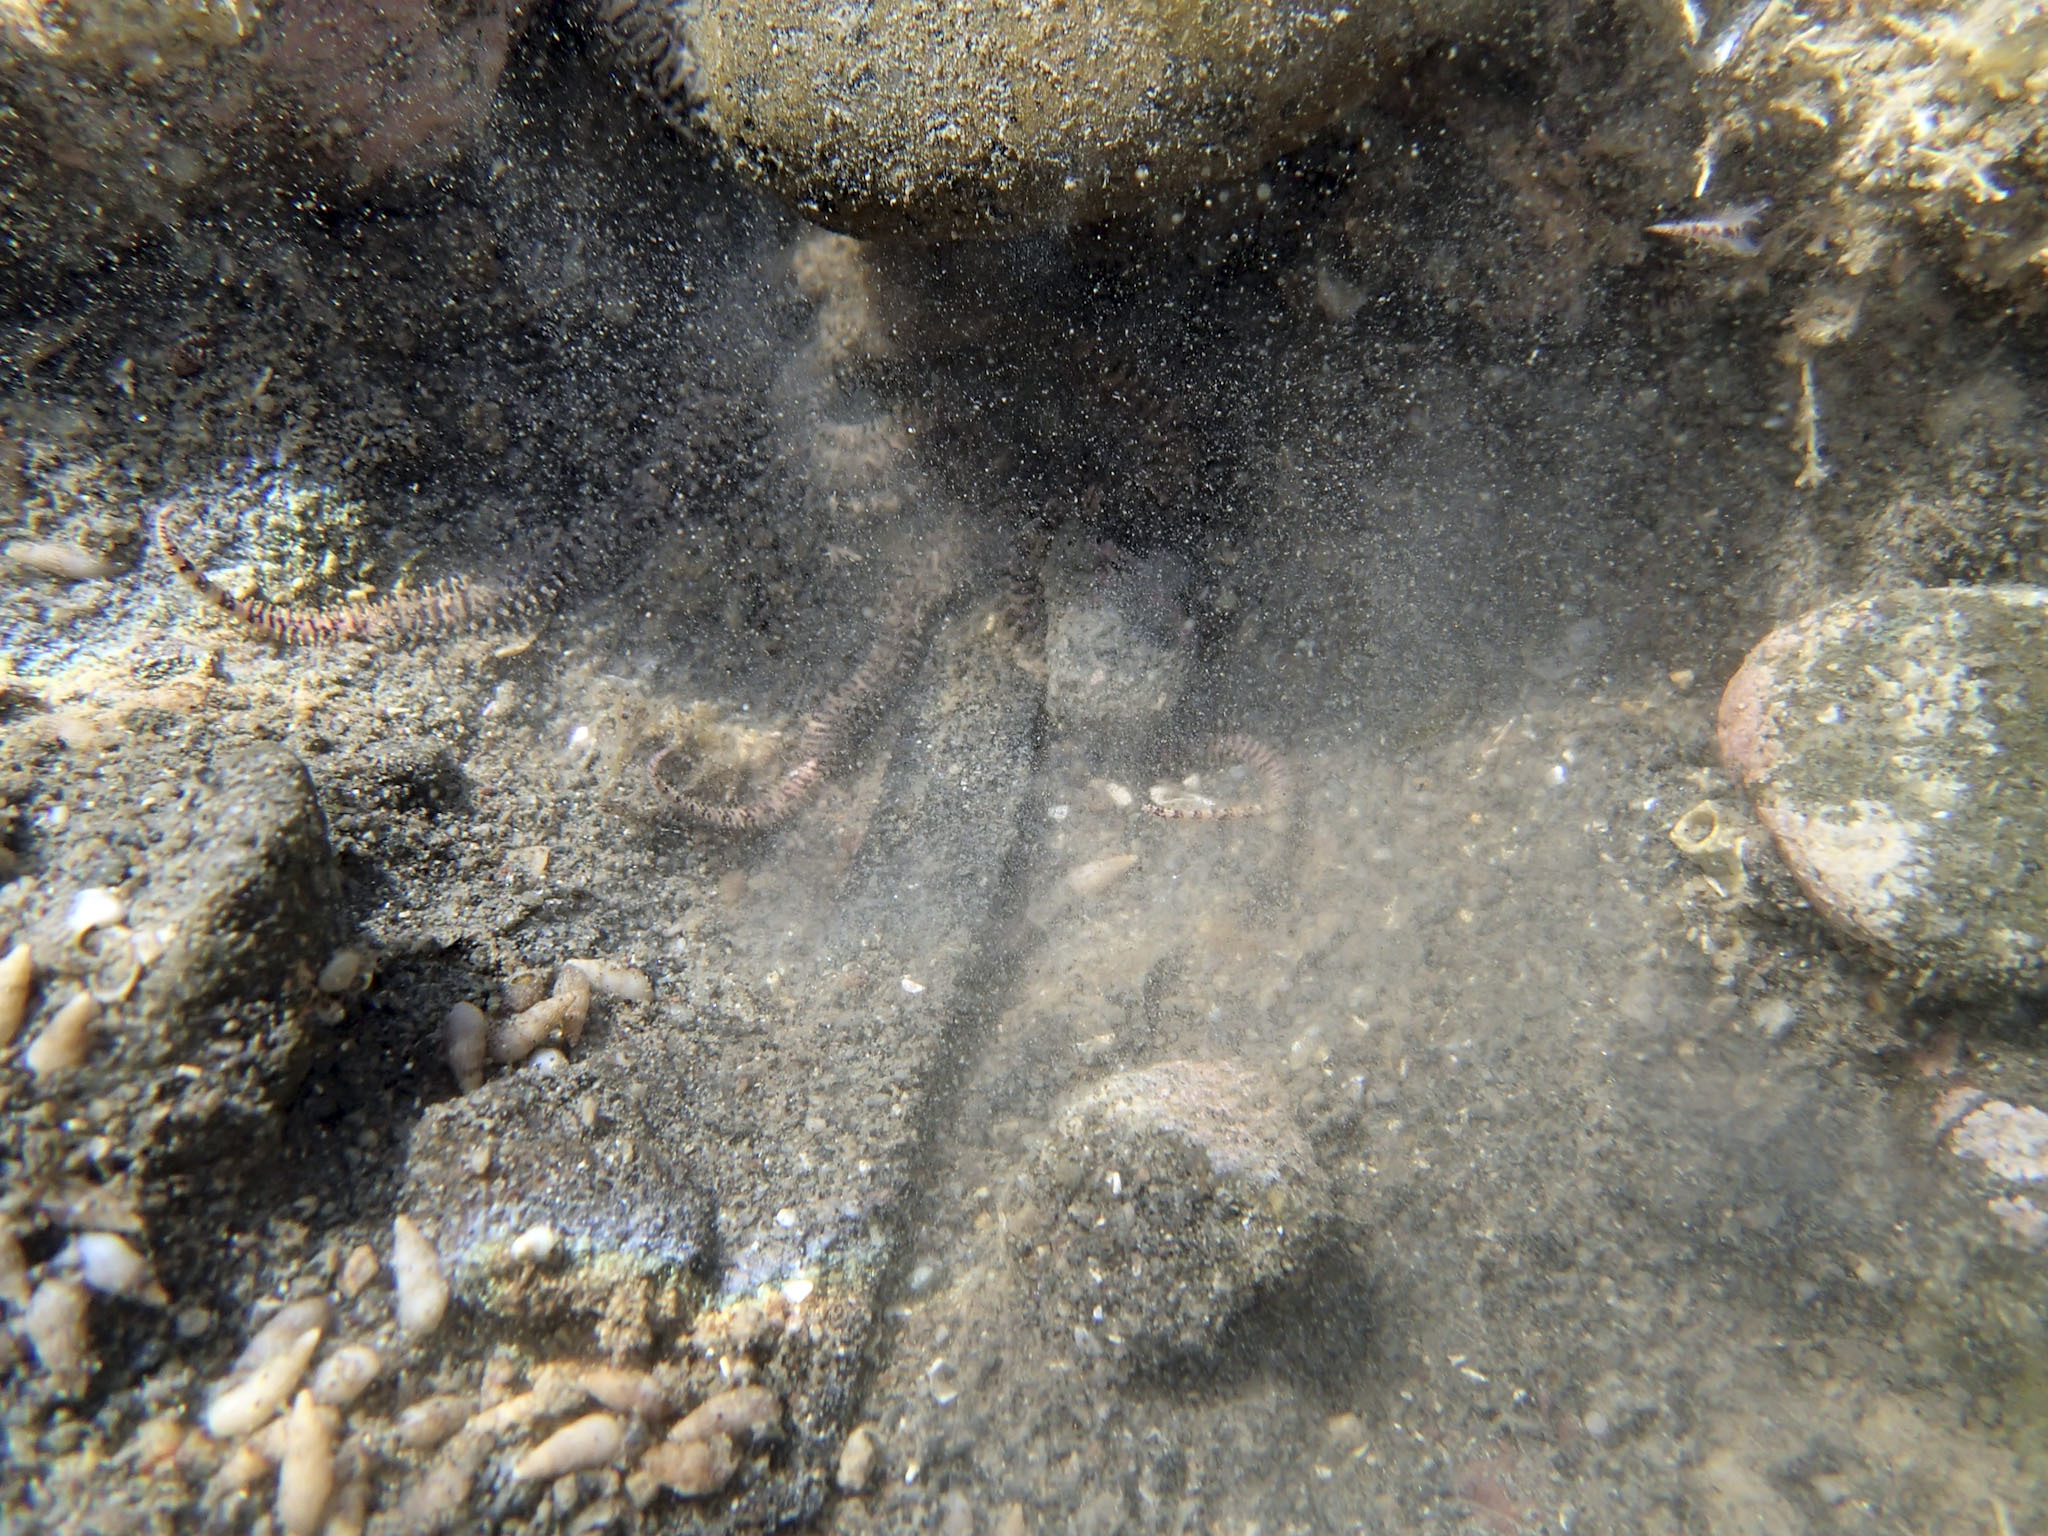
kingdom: Animalia
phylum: Echinodermata
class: Ophiuroidea
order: Amphilepidida
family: Ophionereididae
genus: Ophionereis
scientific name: Ophionereis fasciata
